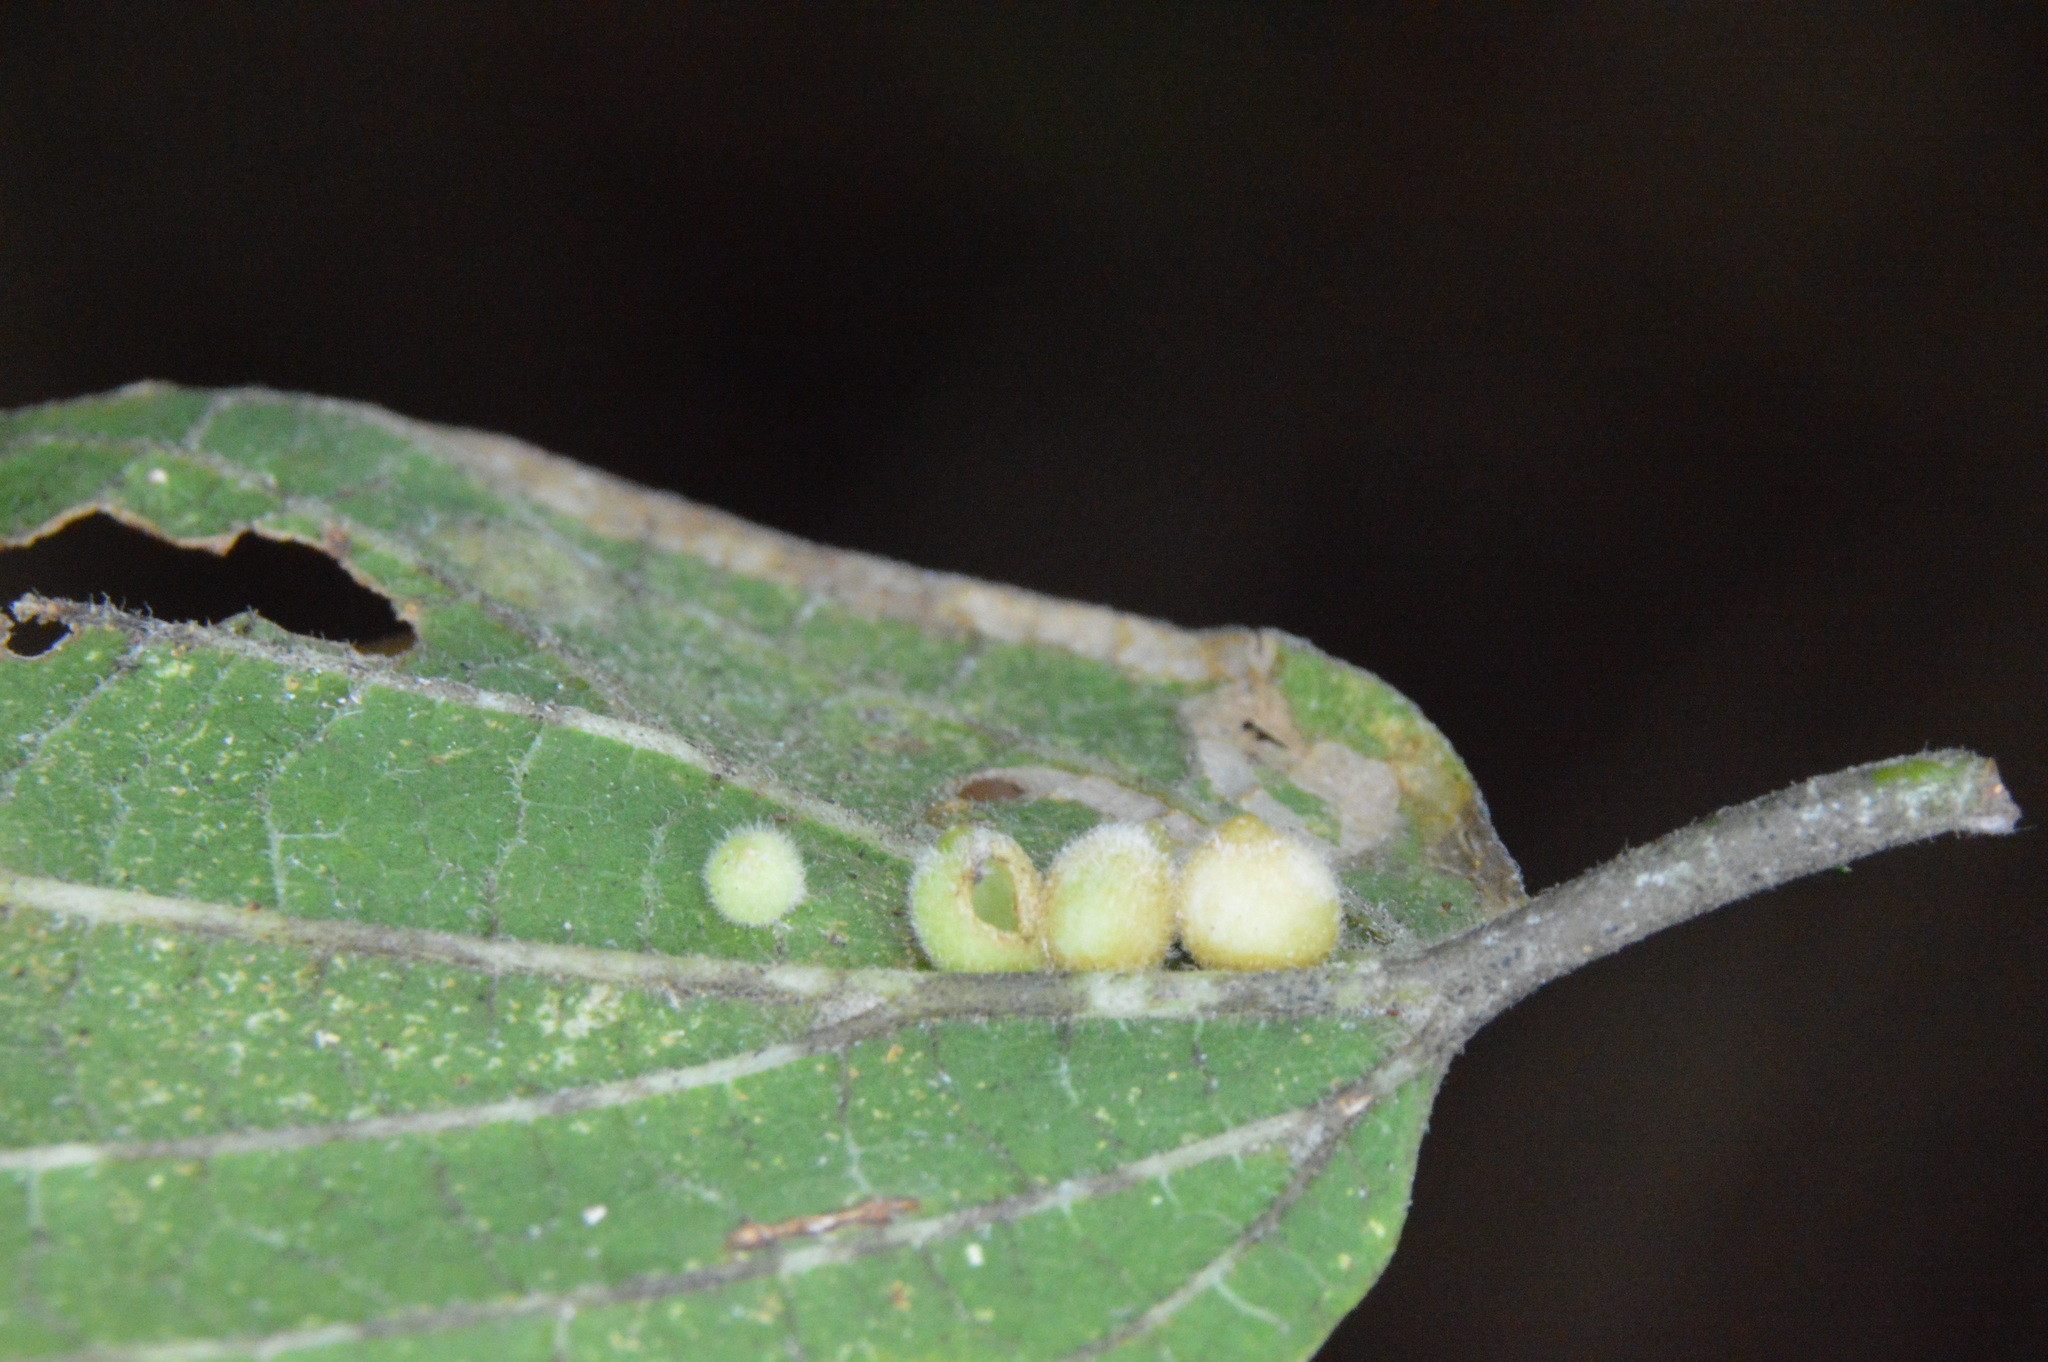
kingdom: Animalia
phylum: Arthropoda
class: Insecta
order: Diptera
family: Cecidomyiidae
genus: Celticecis
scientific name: Celticecis globosa
